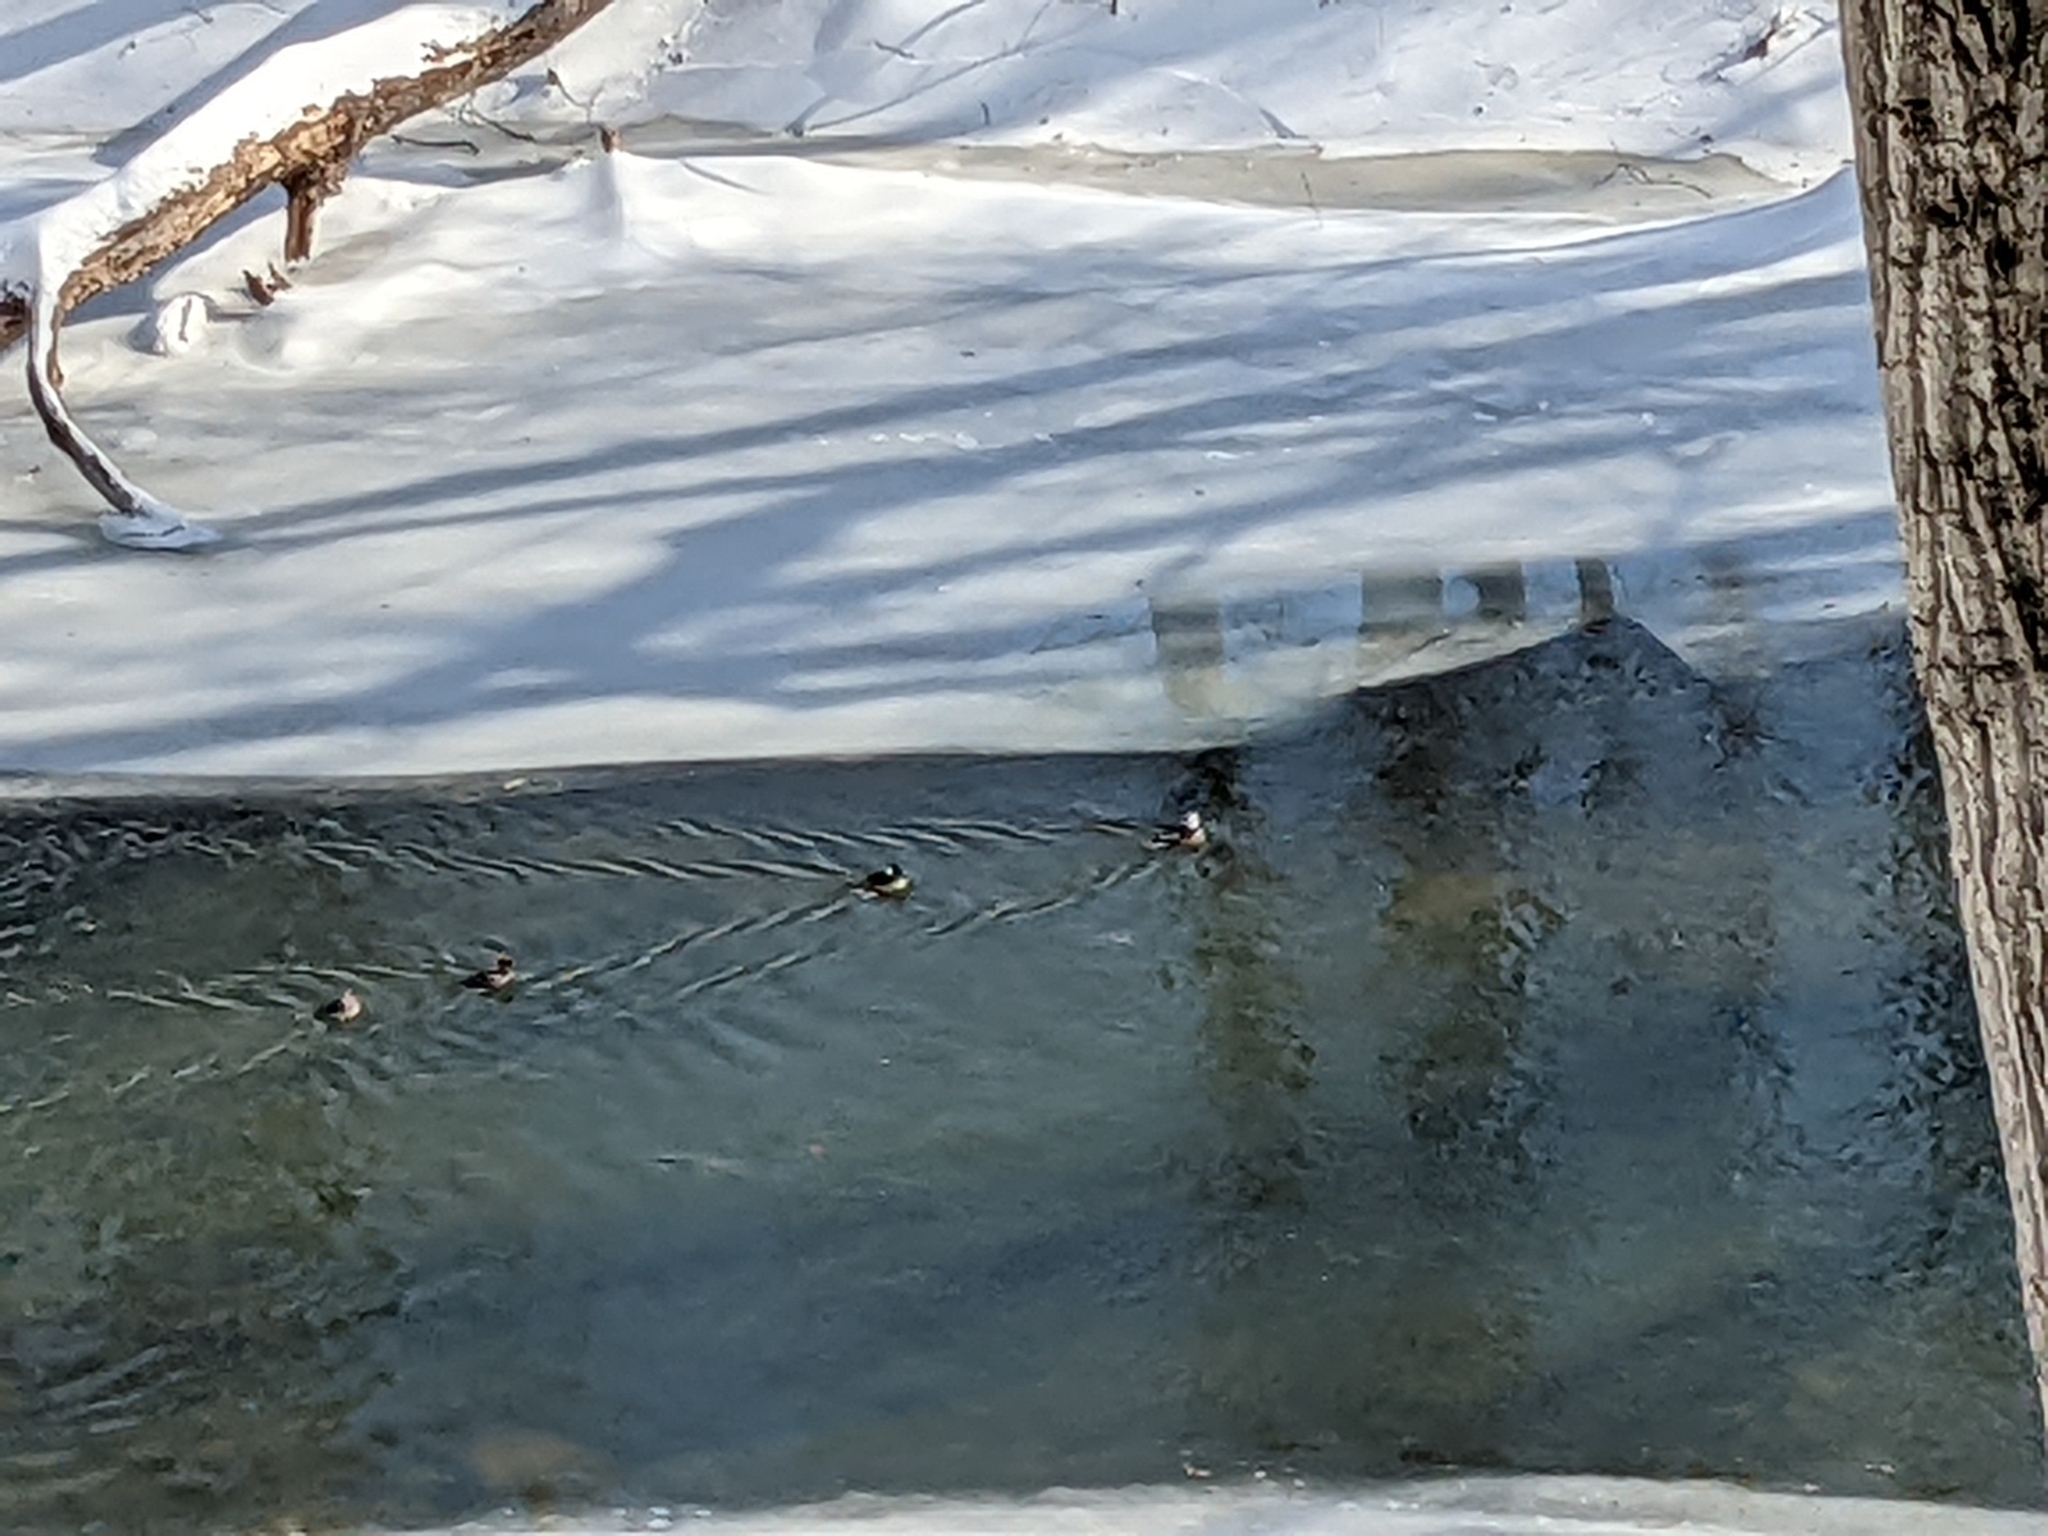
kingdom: Animalia
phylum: Chordata
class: Aves
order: Anseriformes
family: Anatidae
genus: Lophodytes
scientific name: Lophodytes cucullatus
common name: Hooded merganser
